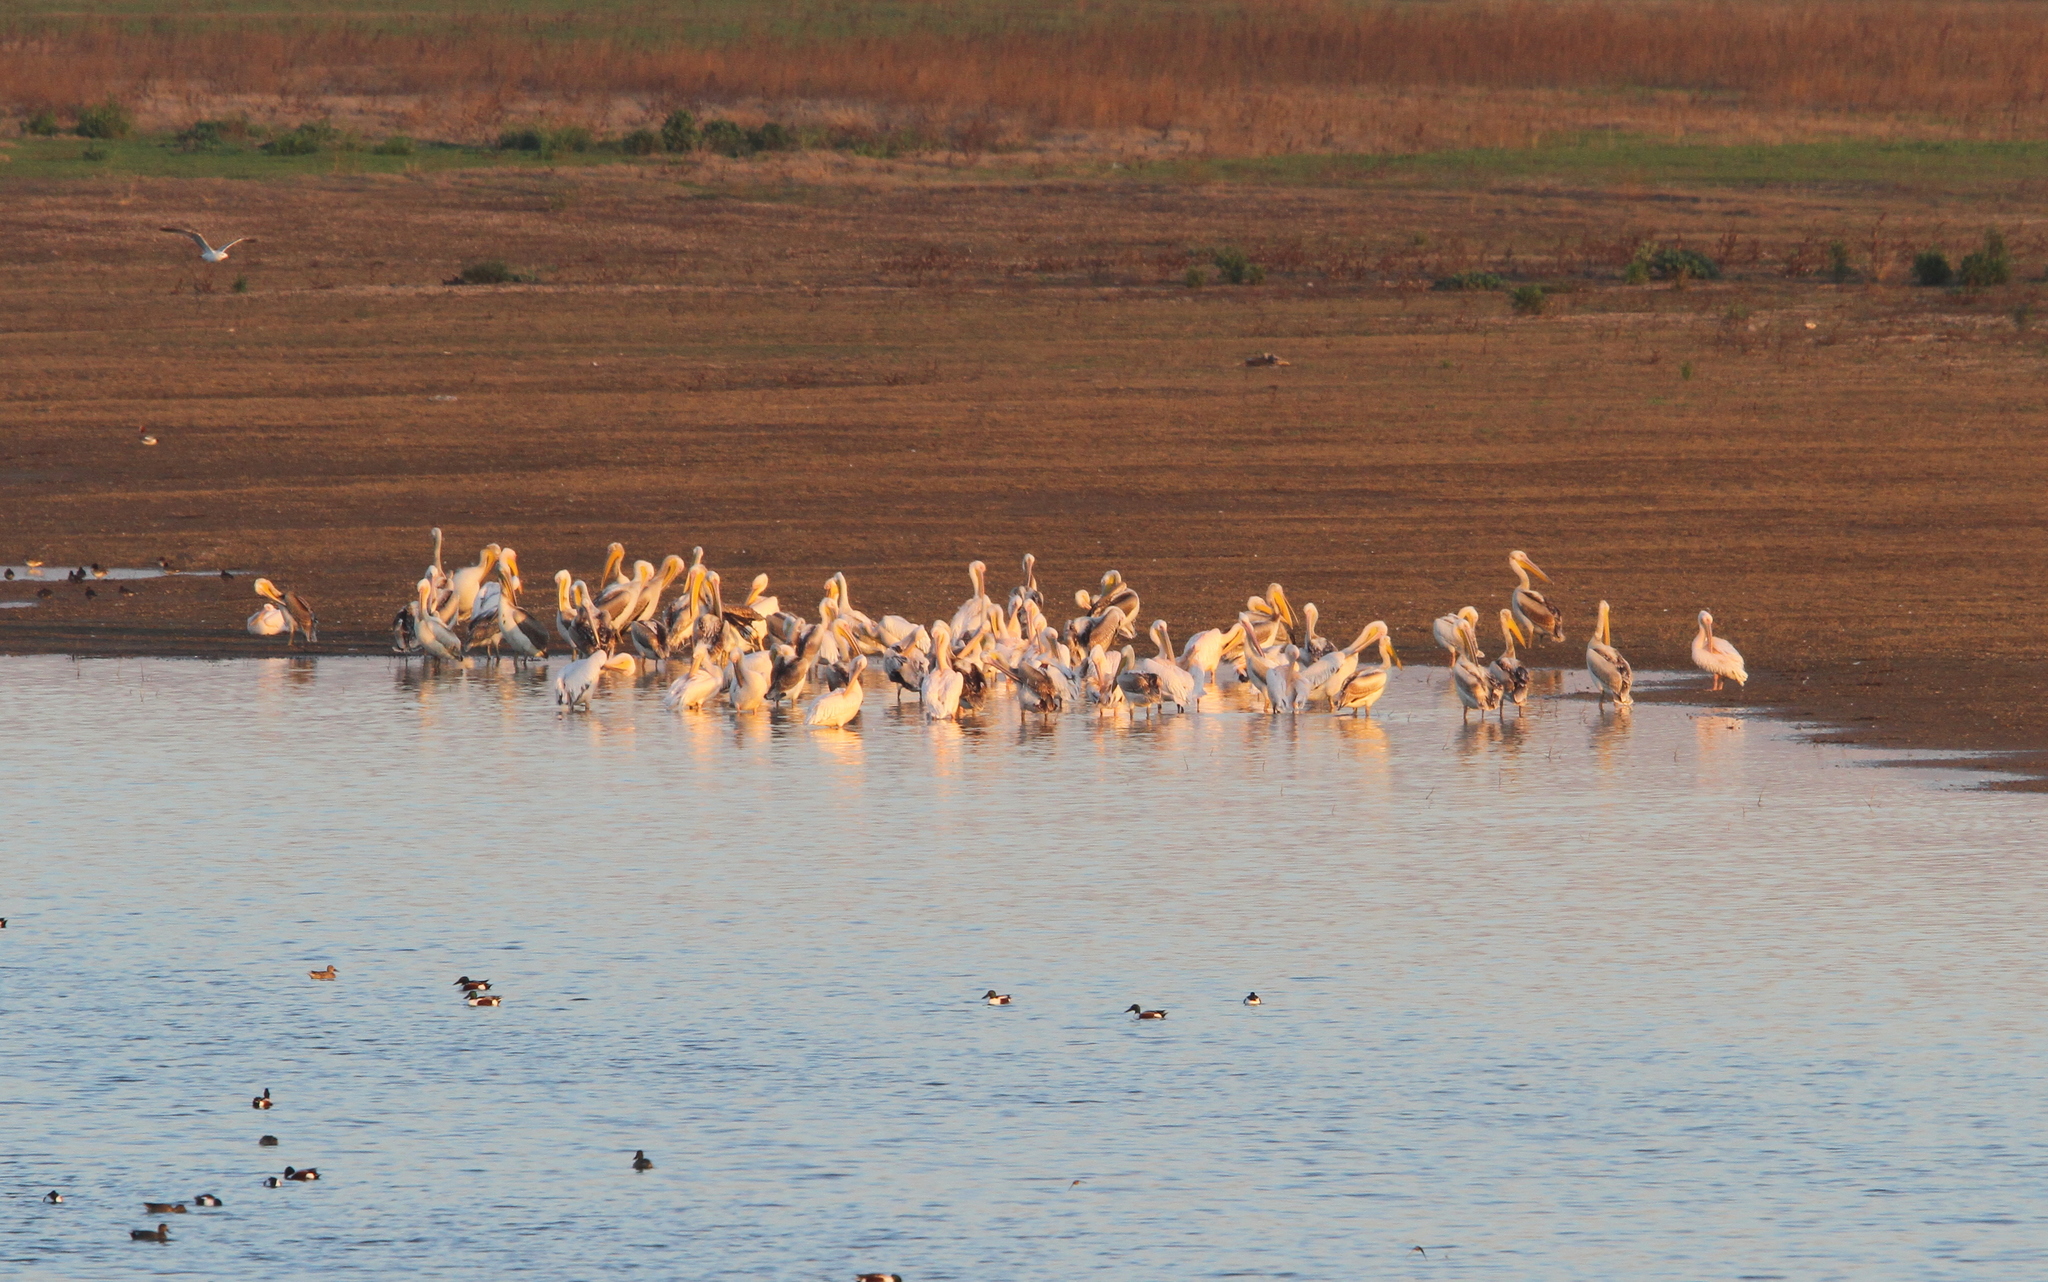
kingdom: Animalia
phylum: Chordata
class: Aves
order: Pelecaniformes
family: Pelecanidae
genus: Pelecanus
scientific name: Pelecanus onocrotalus
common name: Great white pelican
